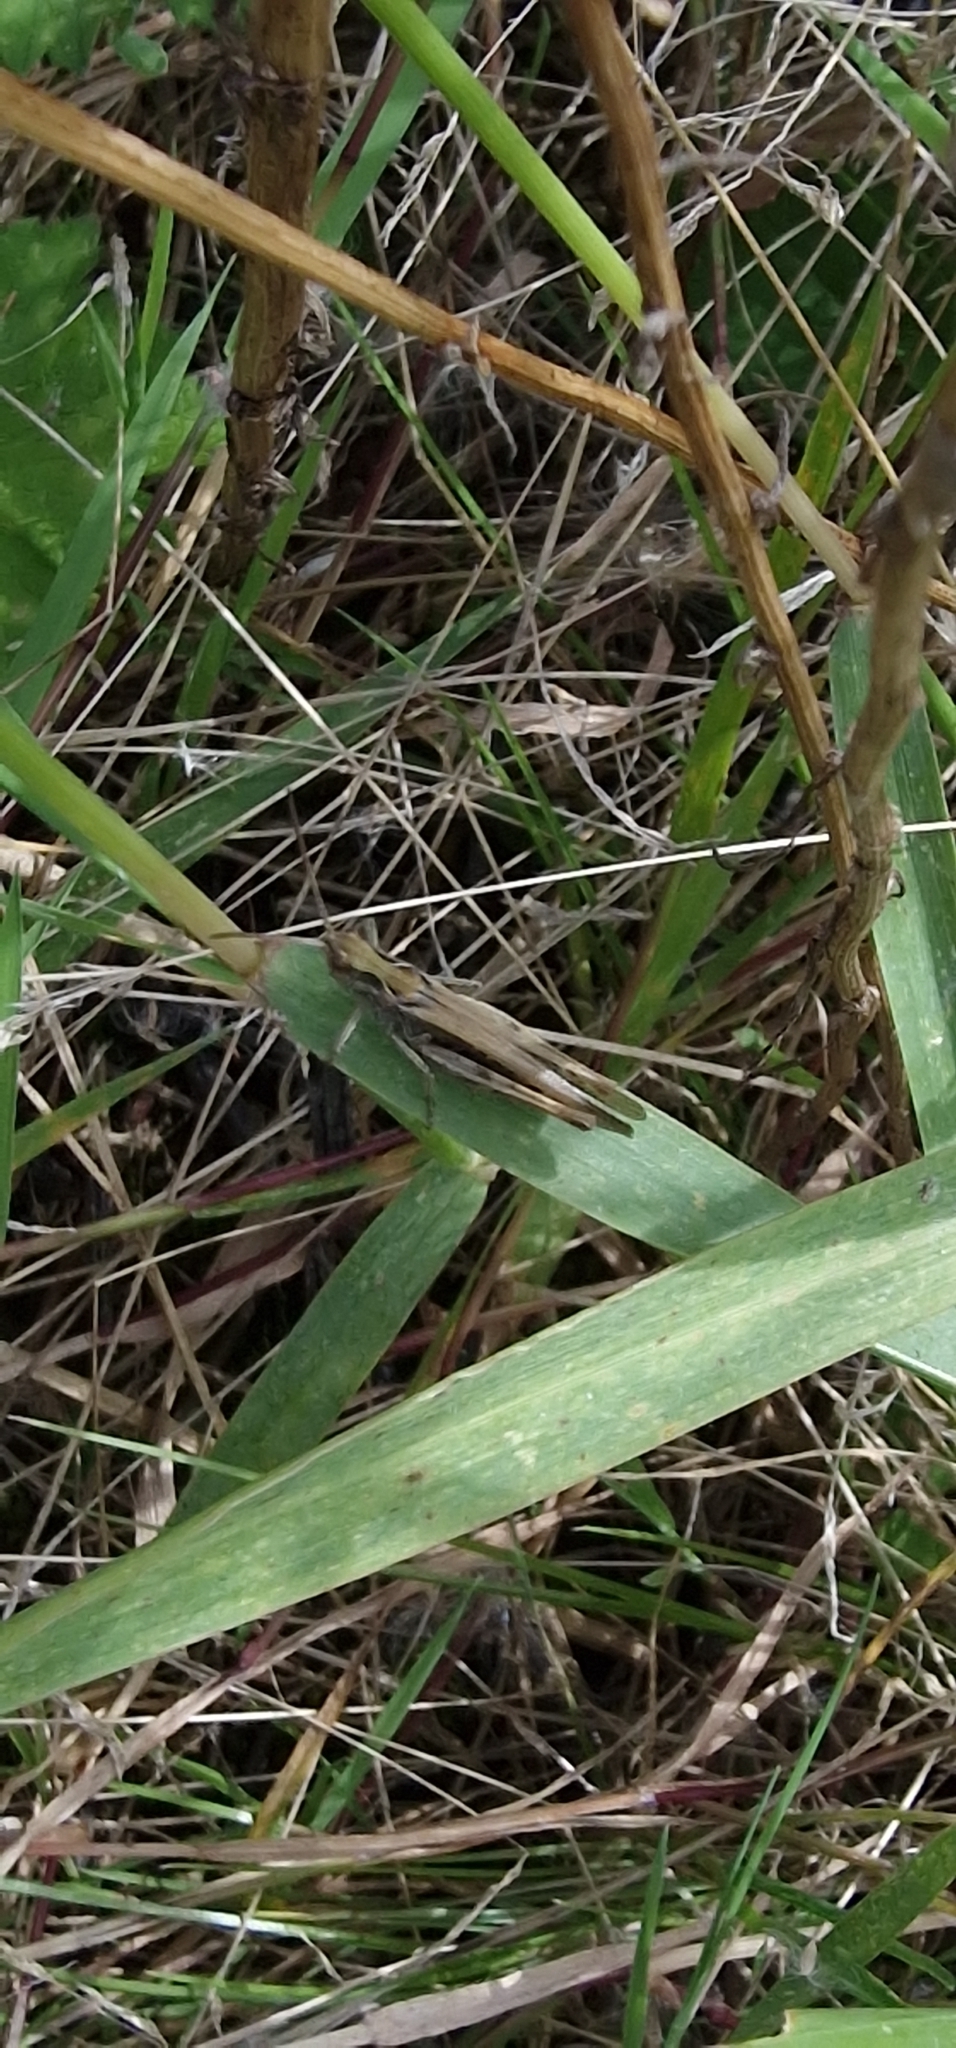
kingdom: Animalia
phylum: Arthropoda
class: Insecta
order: Orthoptera
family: Acrididae
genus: Chorthippus
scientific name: Chorthippus brunneus
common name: Field grasshopper
